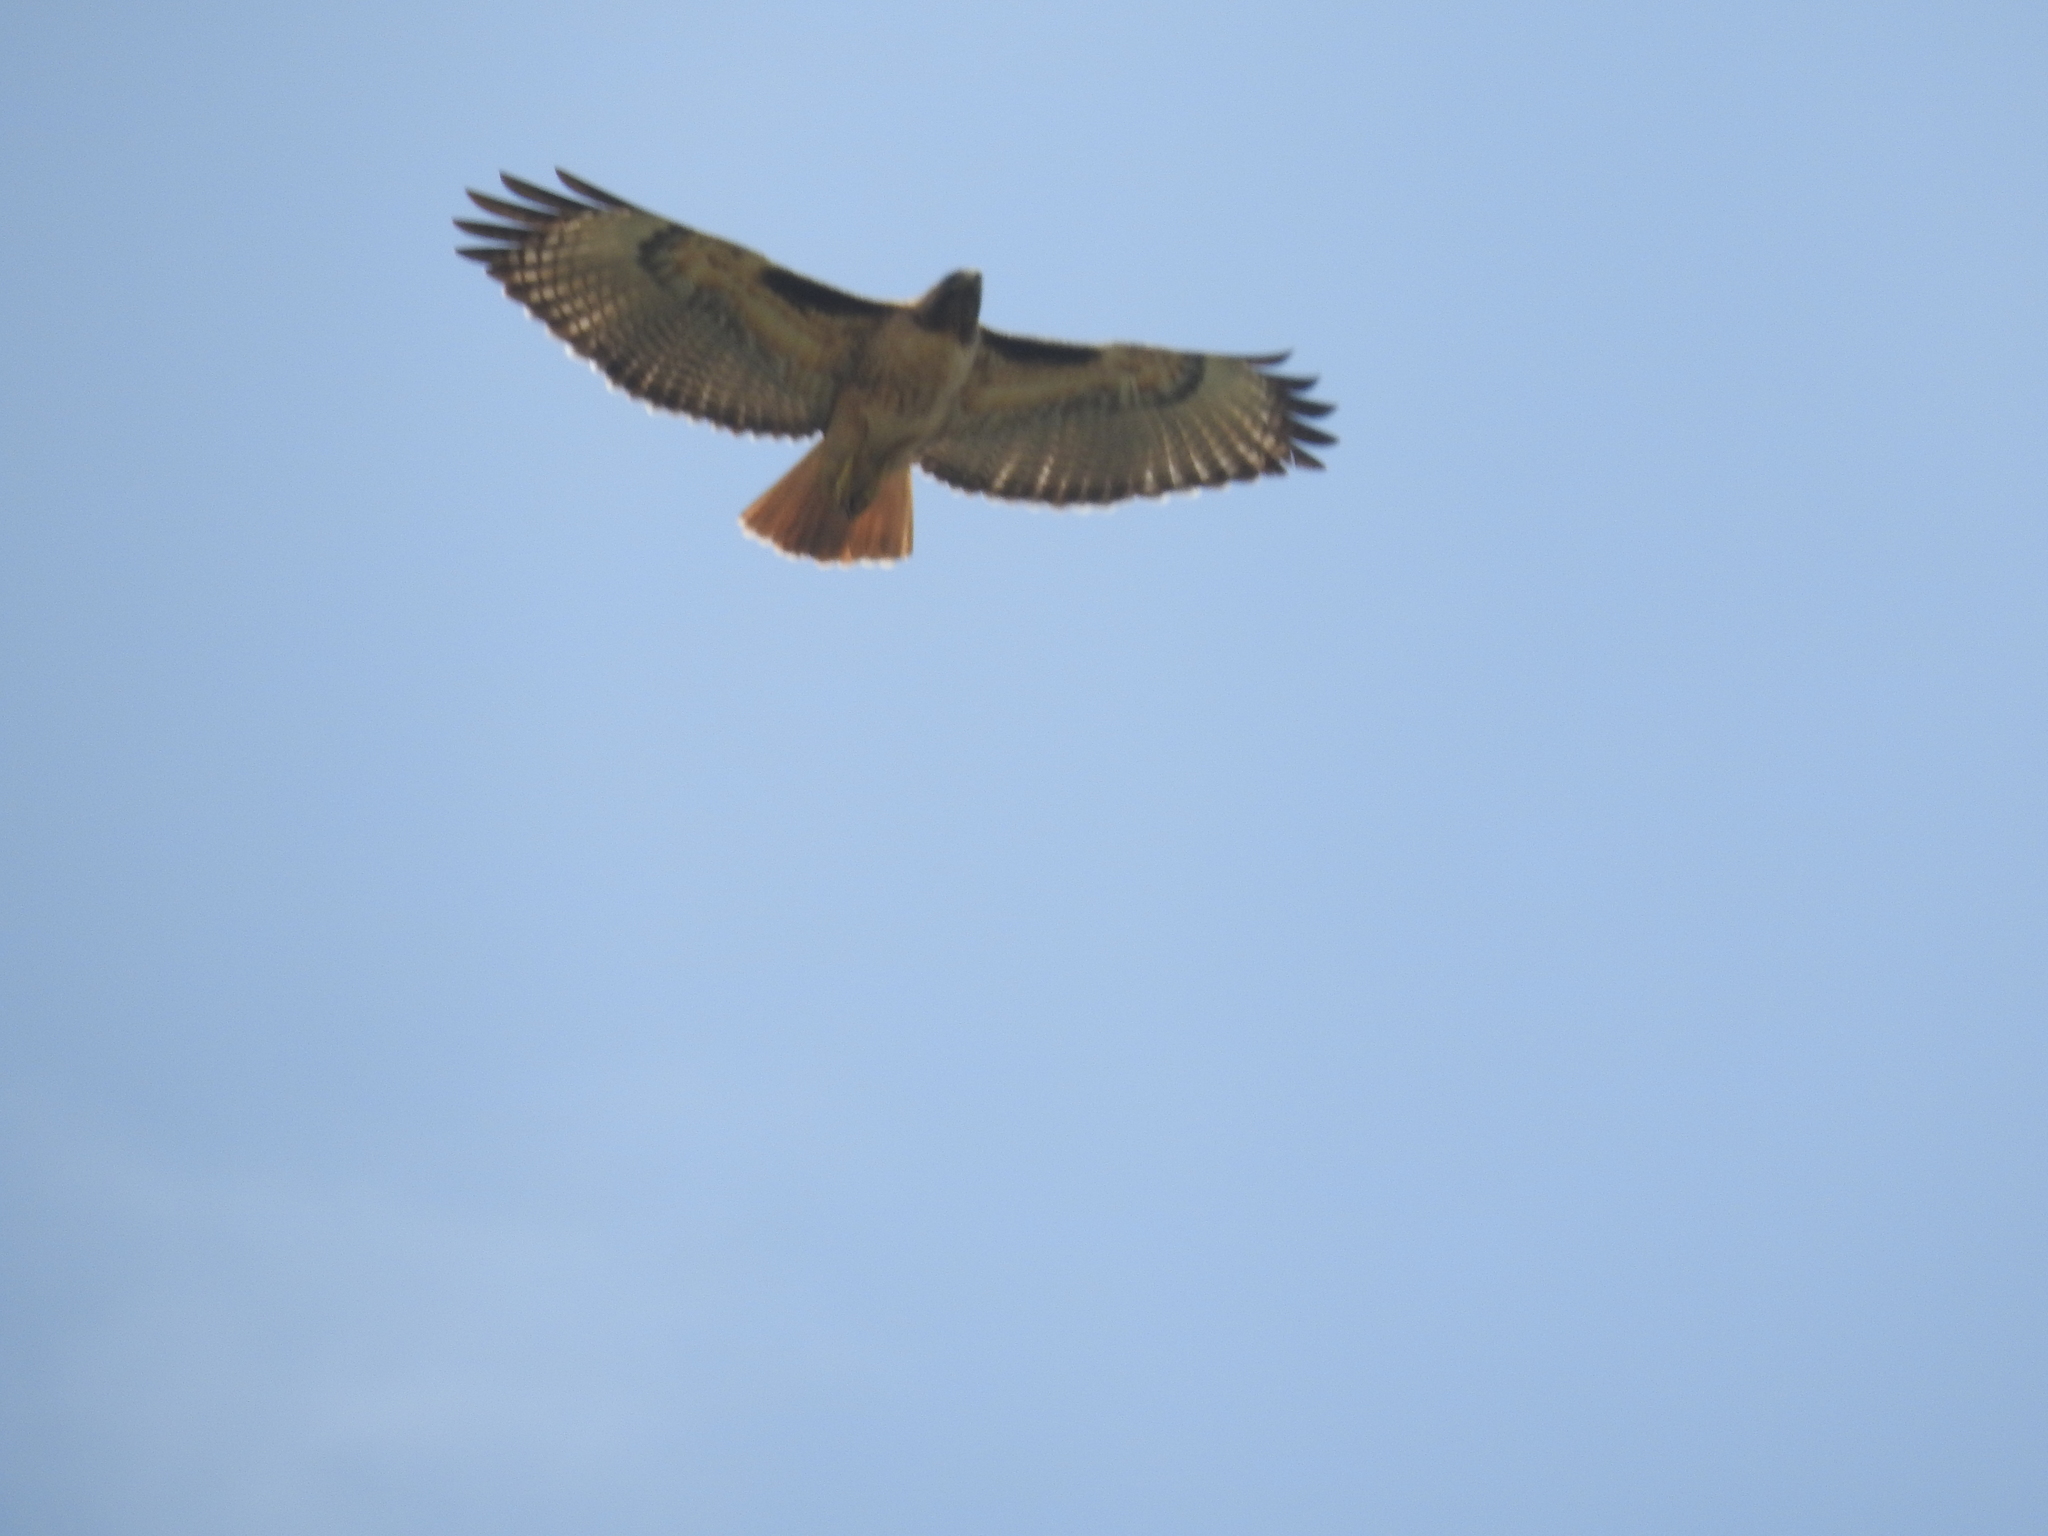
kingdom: Animalia
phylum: Chordata
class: Aves
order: Accipitriformes
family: Accipitridae
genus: Buteo
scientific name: Buteo jamaicensis
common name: Red-tailed hawk
